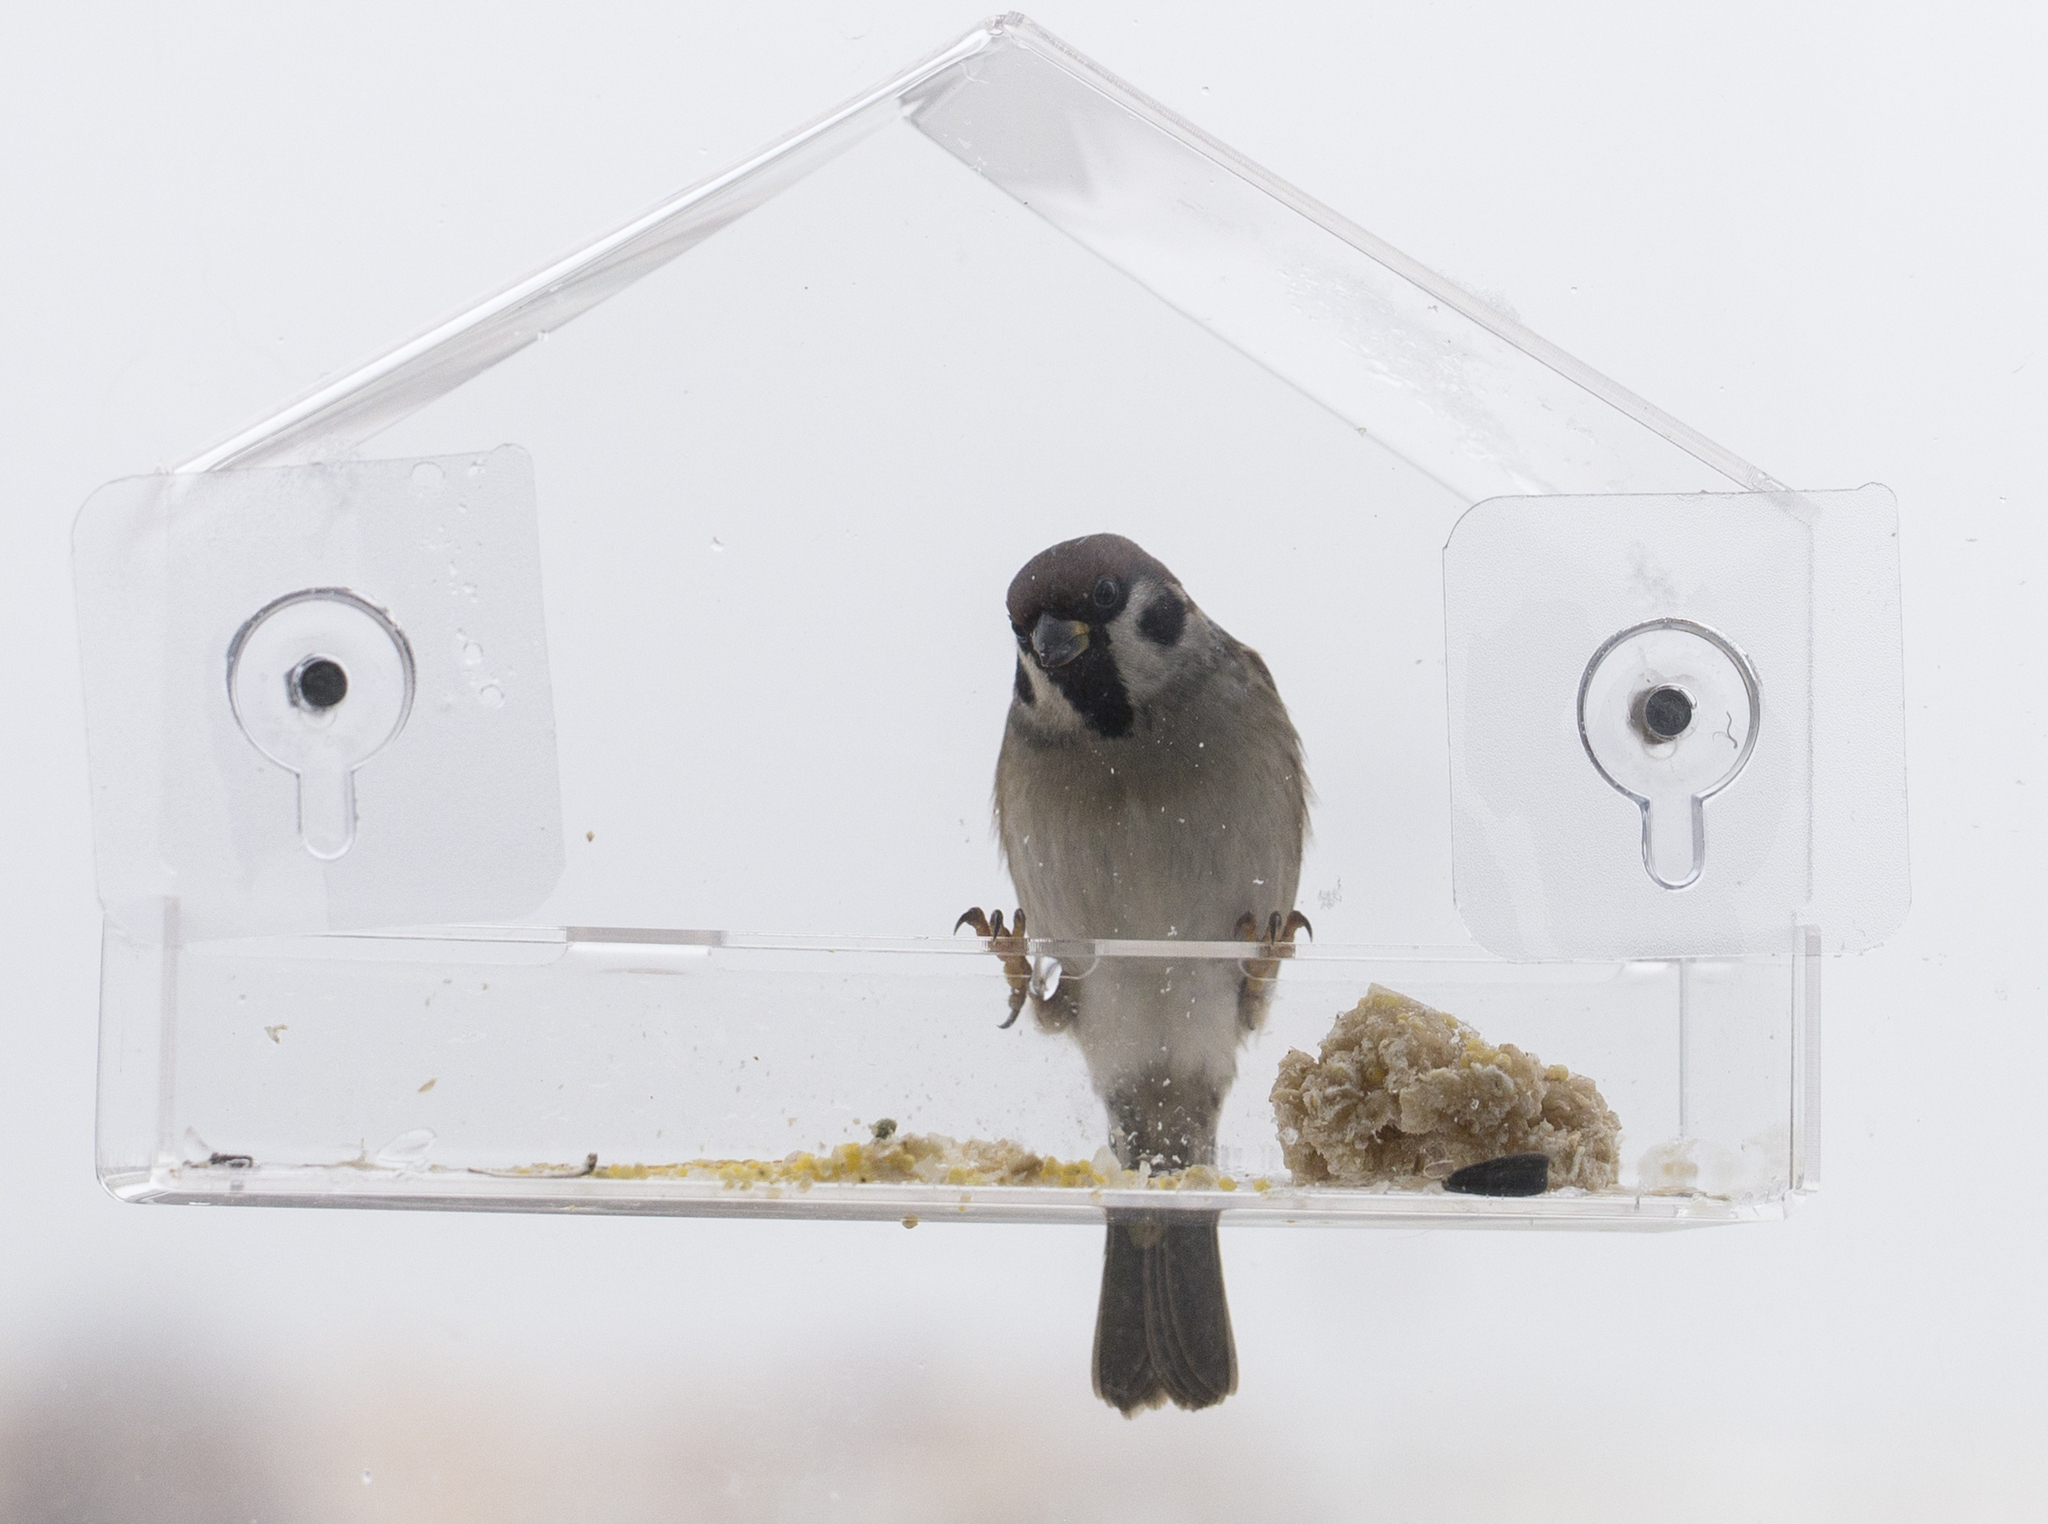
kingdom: Animalia
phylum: Chordata
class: Aves
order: Passeriformes
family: Passeridae
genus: Passer
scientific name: Passer montanus
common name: Eurasian tree sparrow
